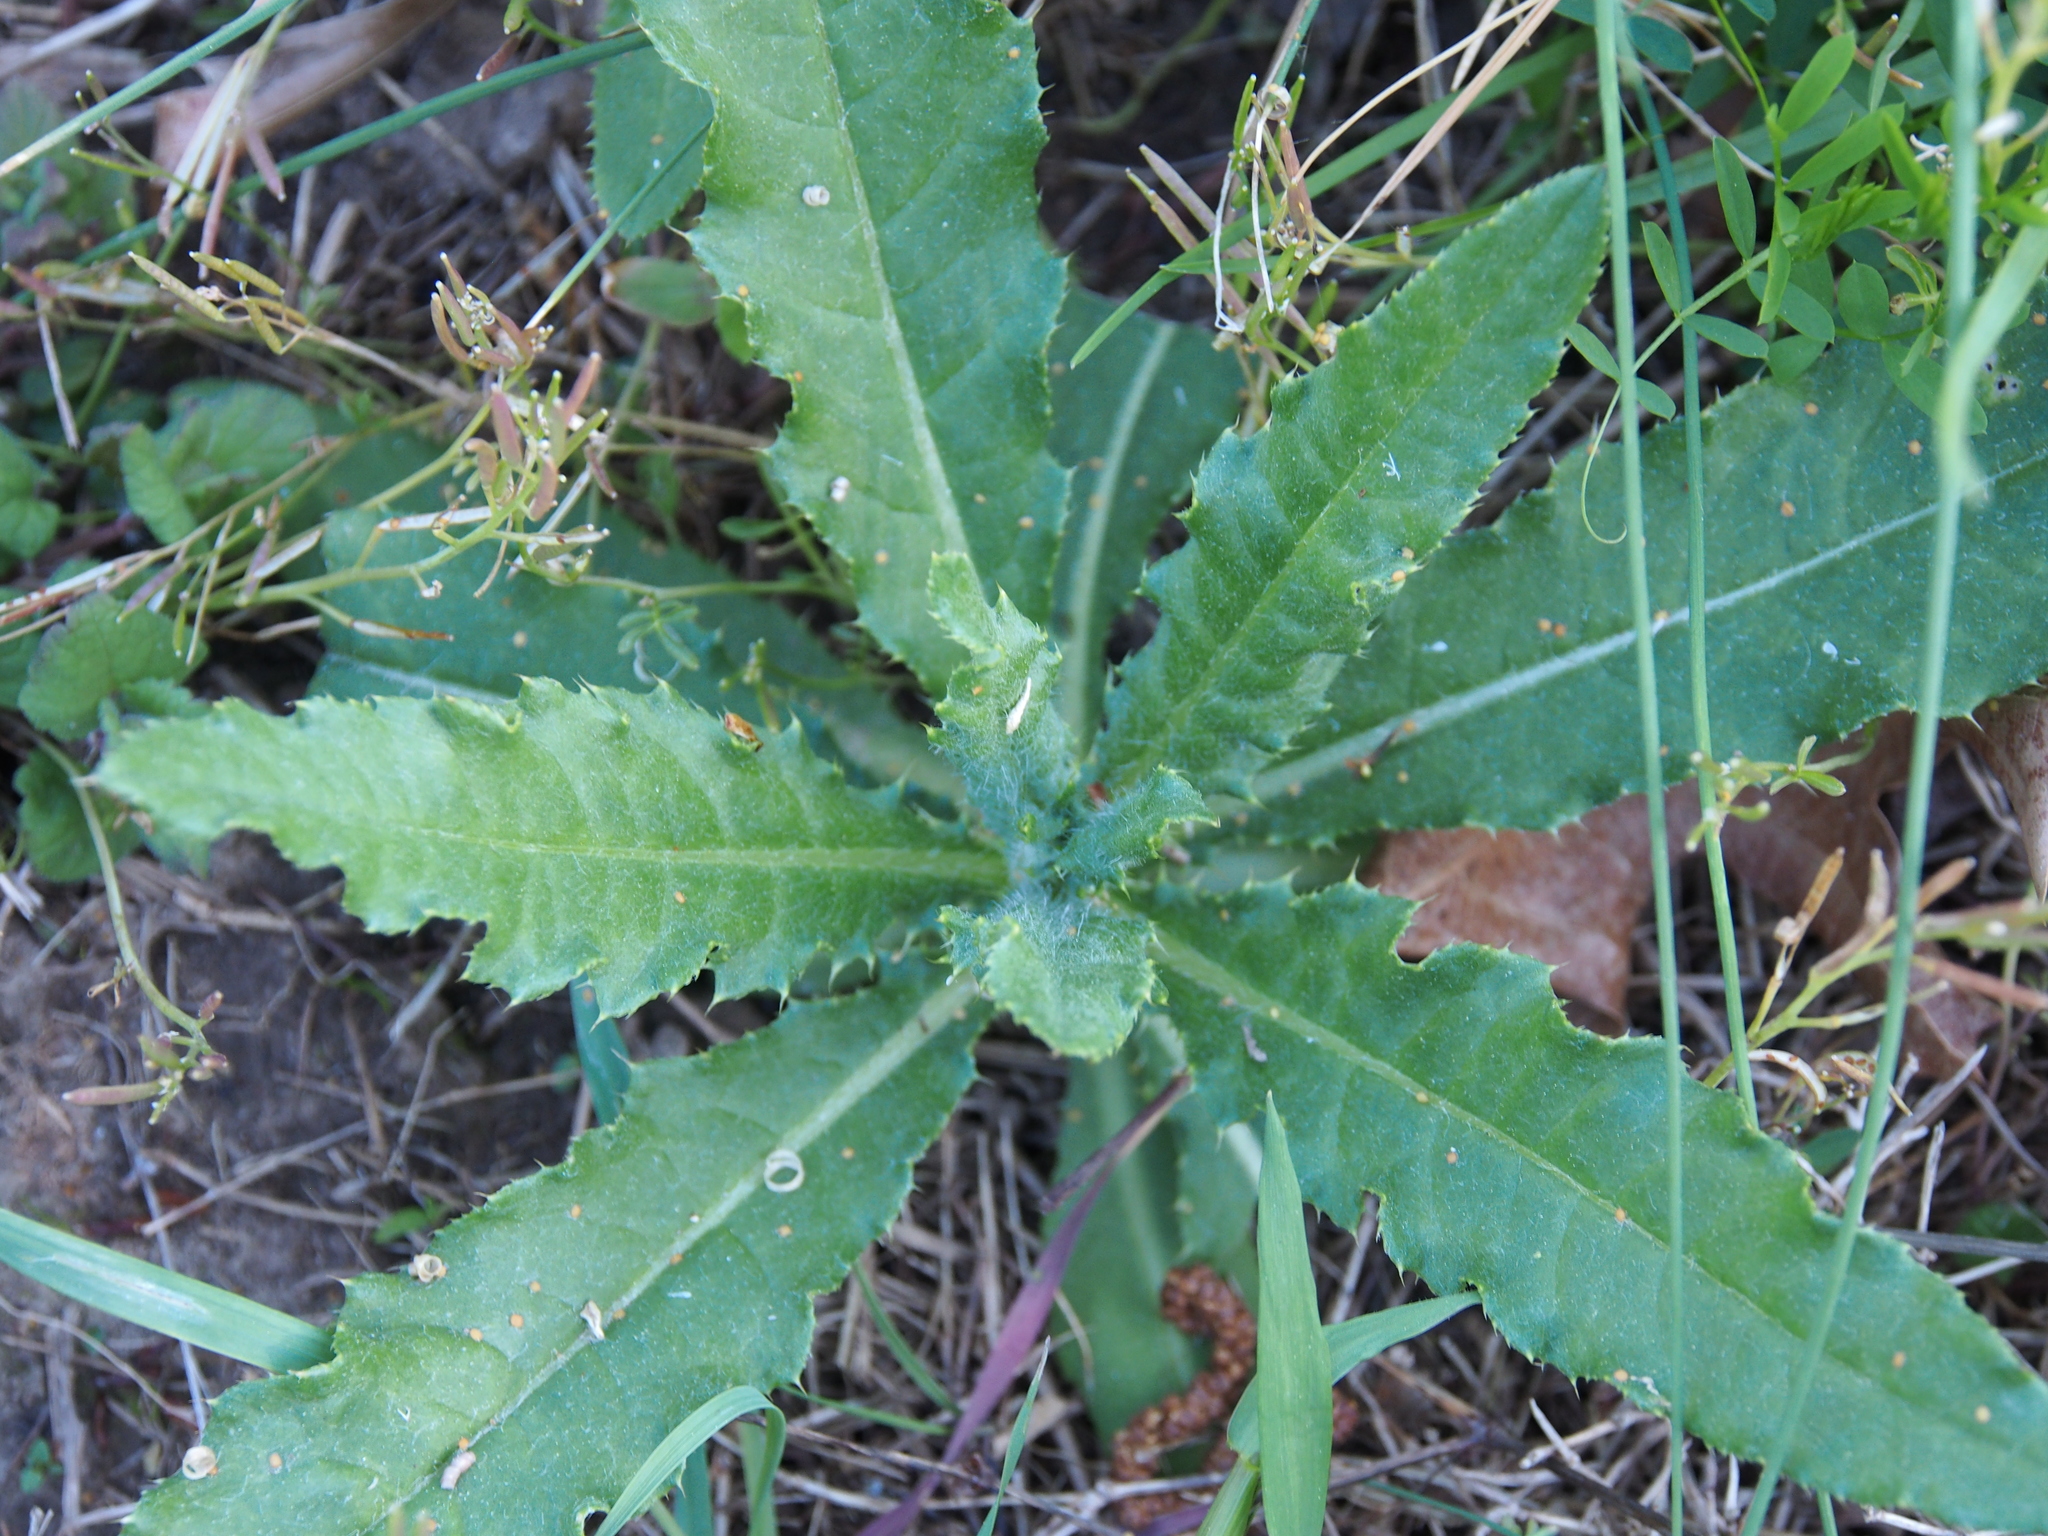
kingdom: Plantae
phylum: Tracheophyta
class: Magnoliopsida
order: Asterales
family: Asteraceae
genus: Cirsium
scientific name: Cirsium arvense
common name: Creeping thistle
